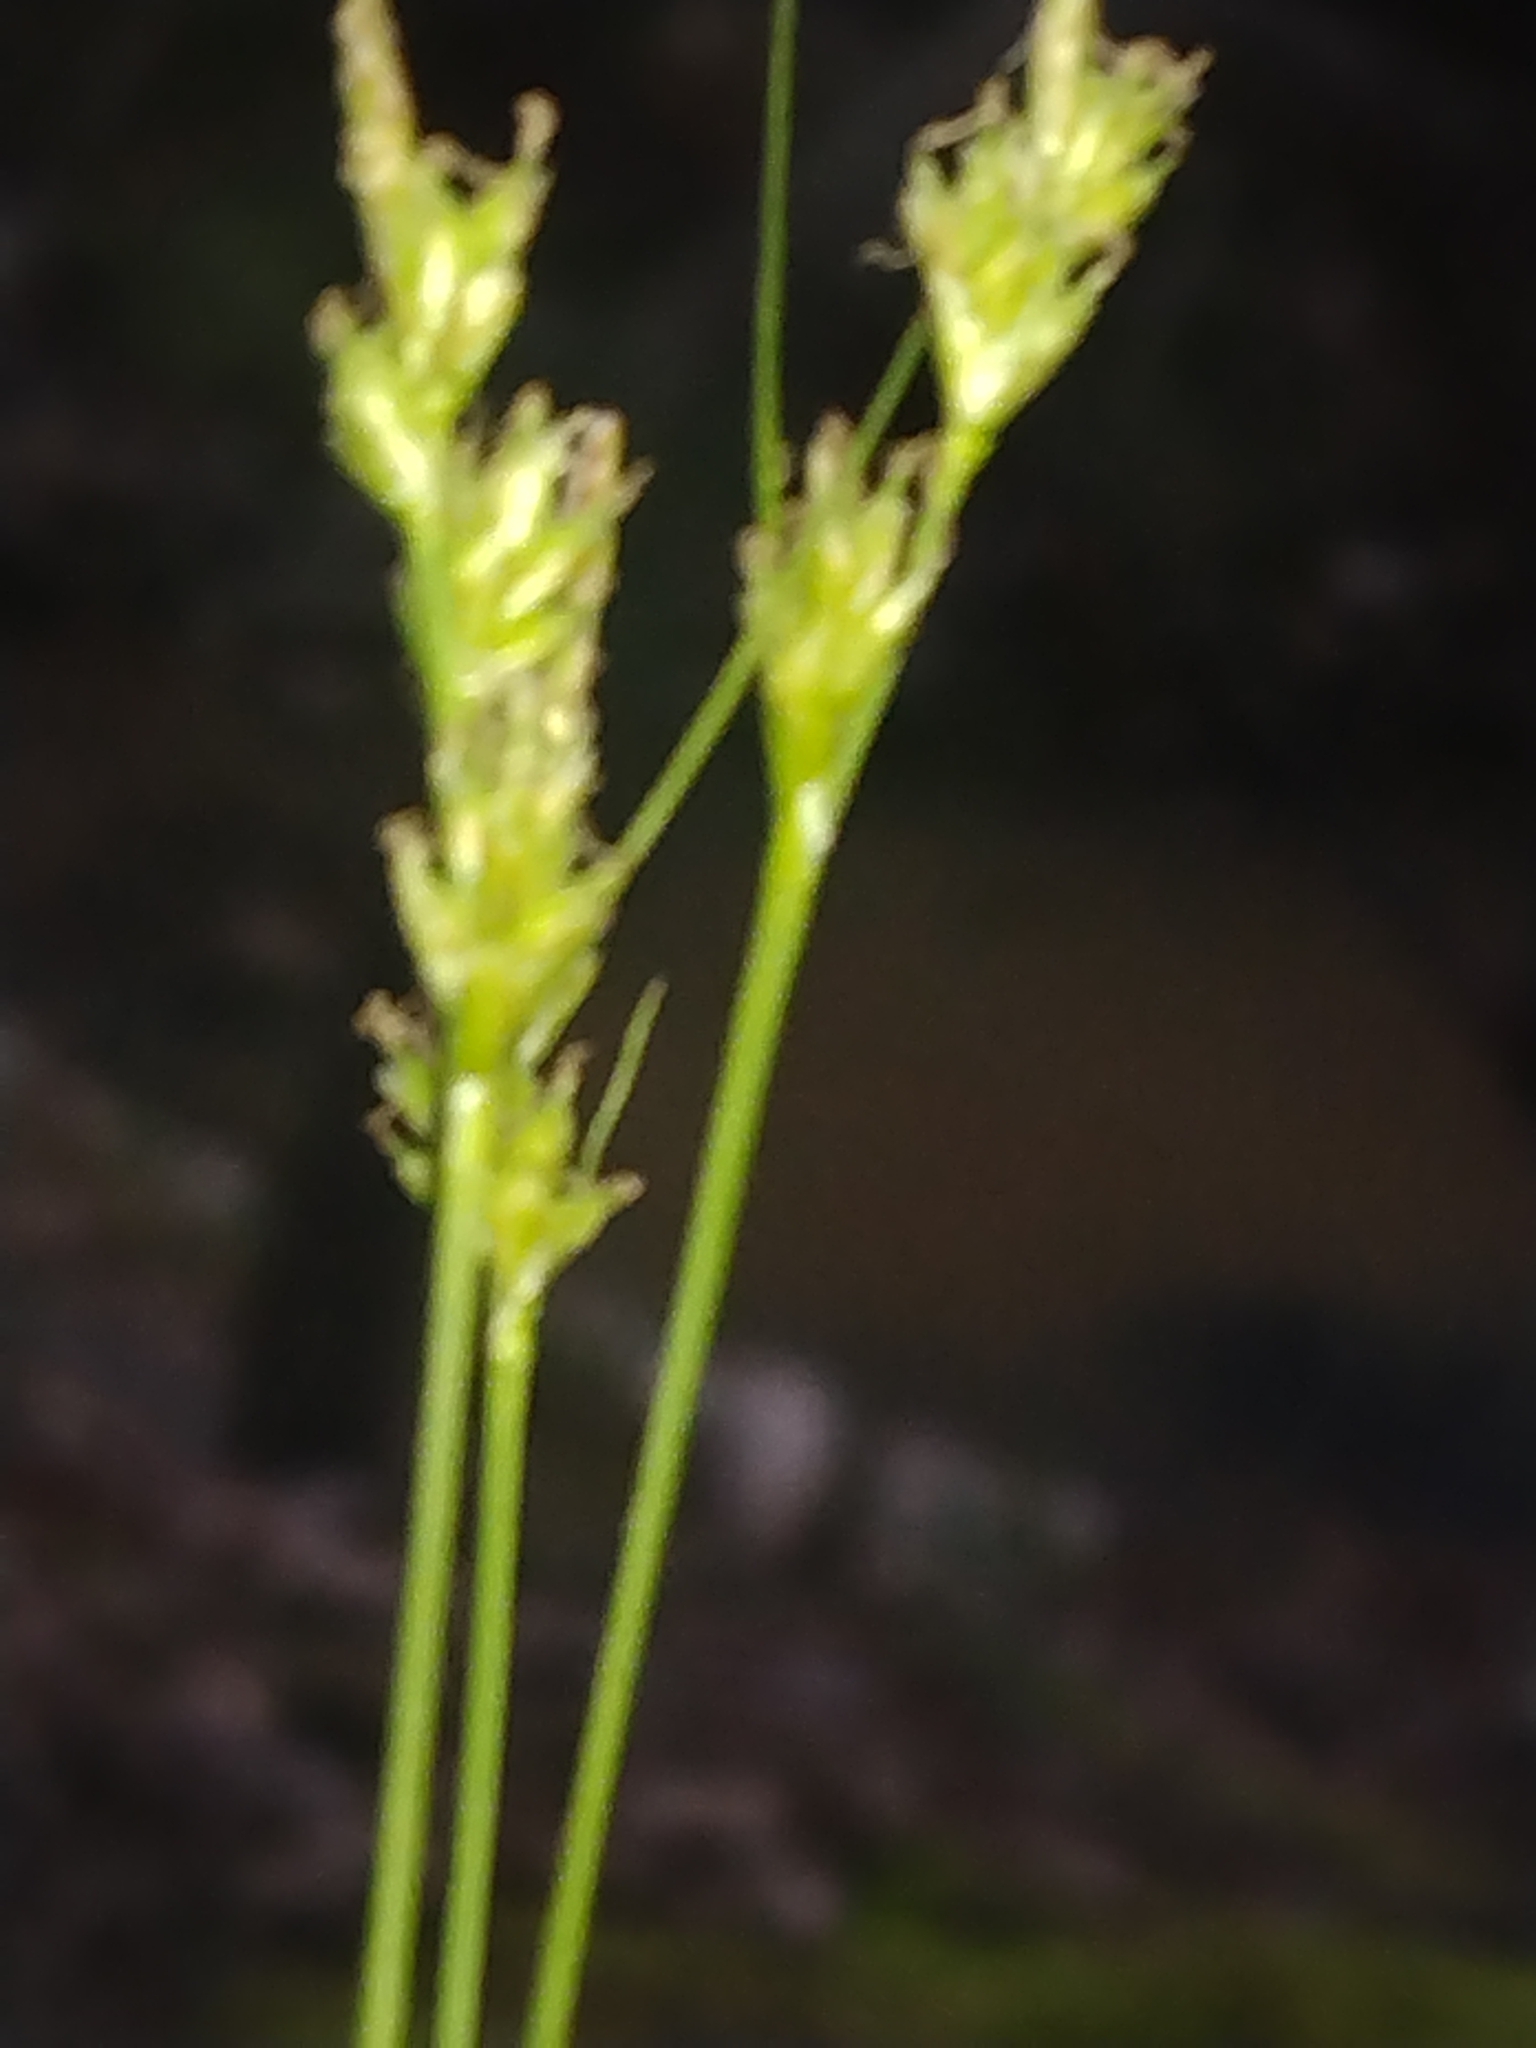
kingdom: Plantae
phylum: Tracheophyta
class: Liliopsida
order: Poales
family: Cyperaceae
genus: Carex
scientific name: Carex albicans
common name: Bellow-beaked sedge
